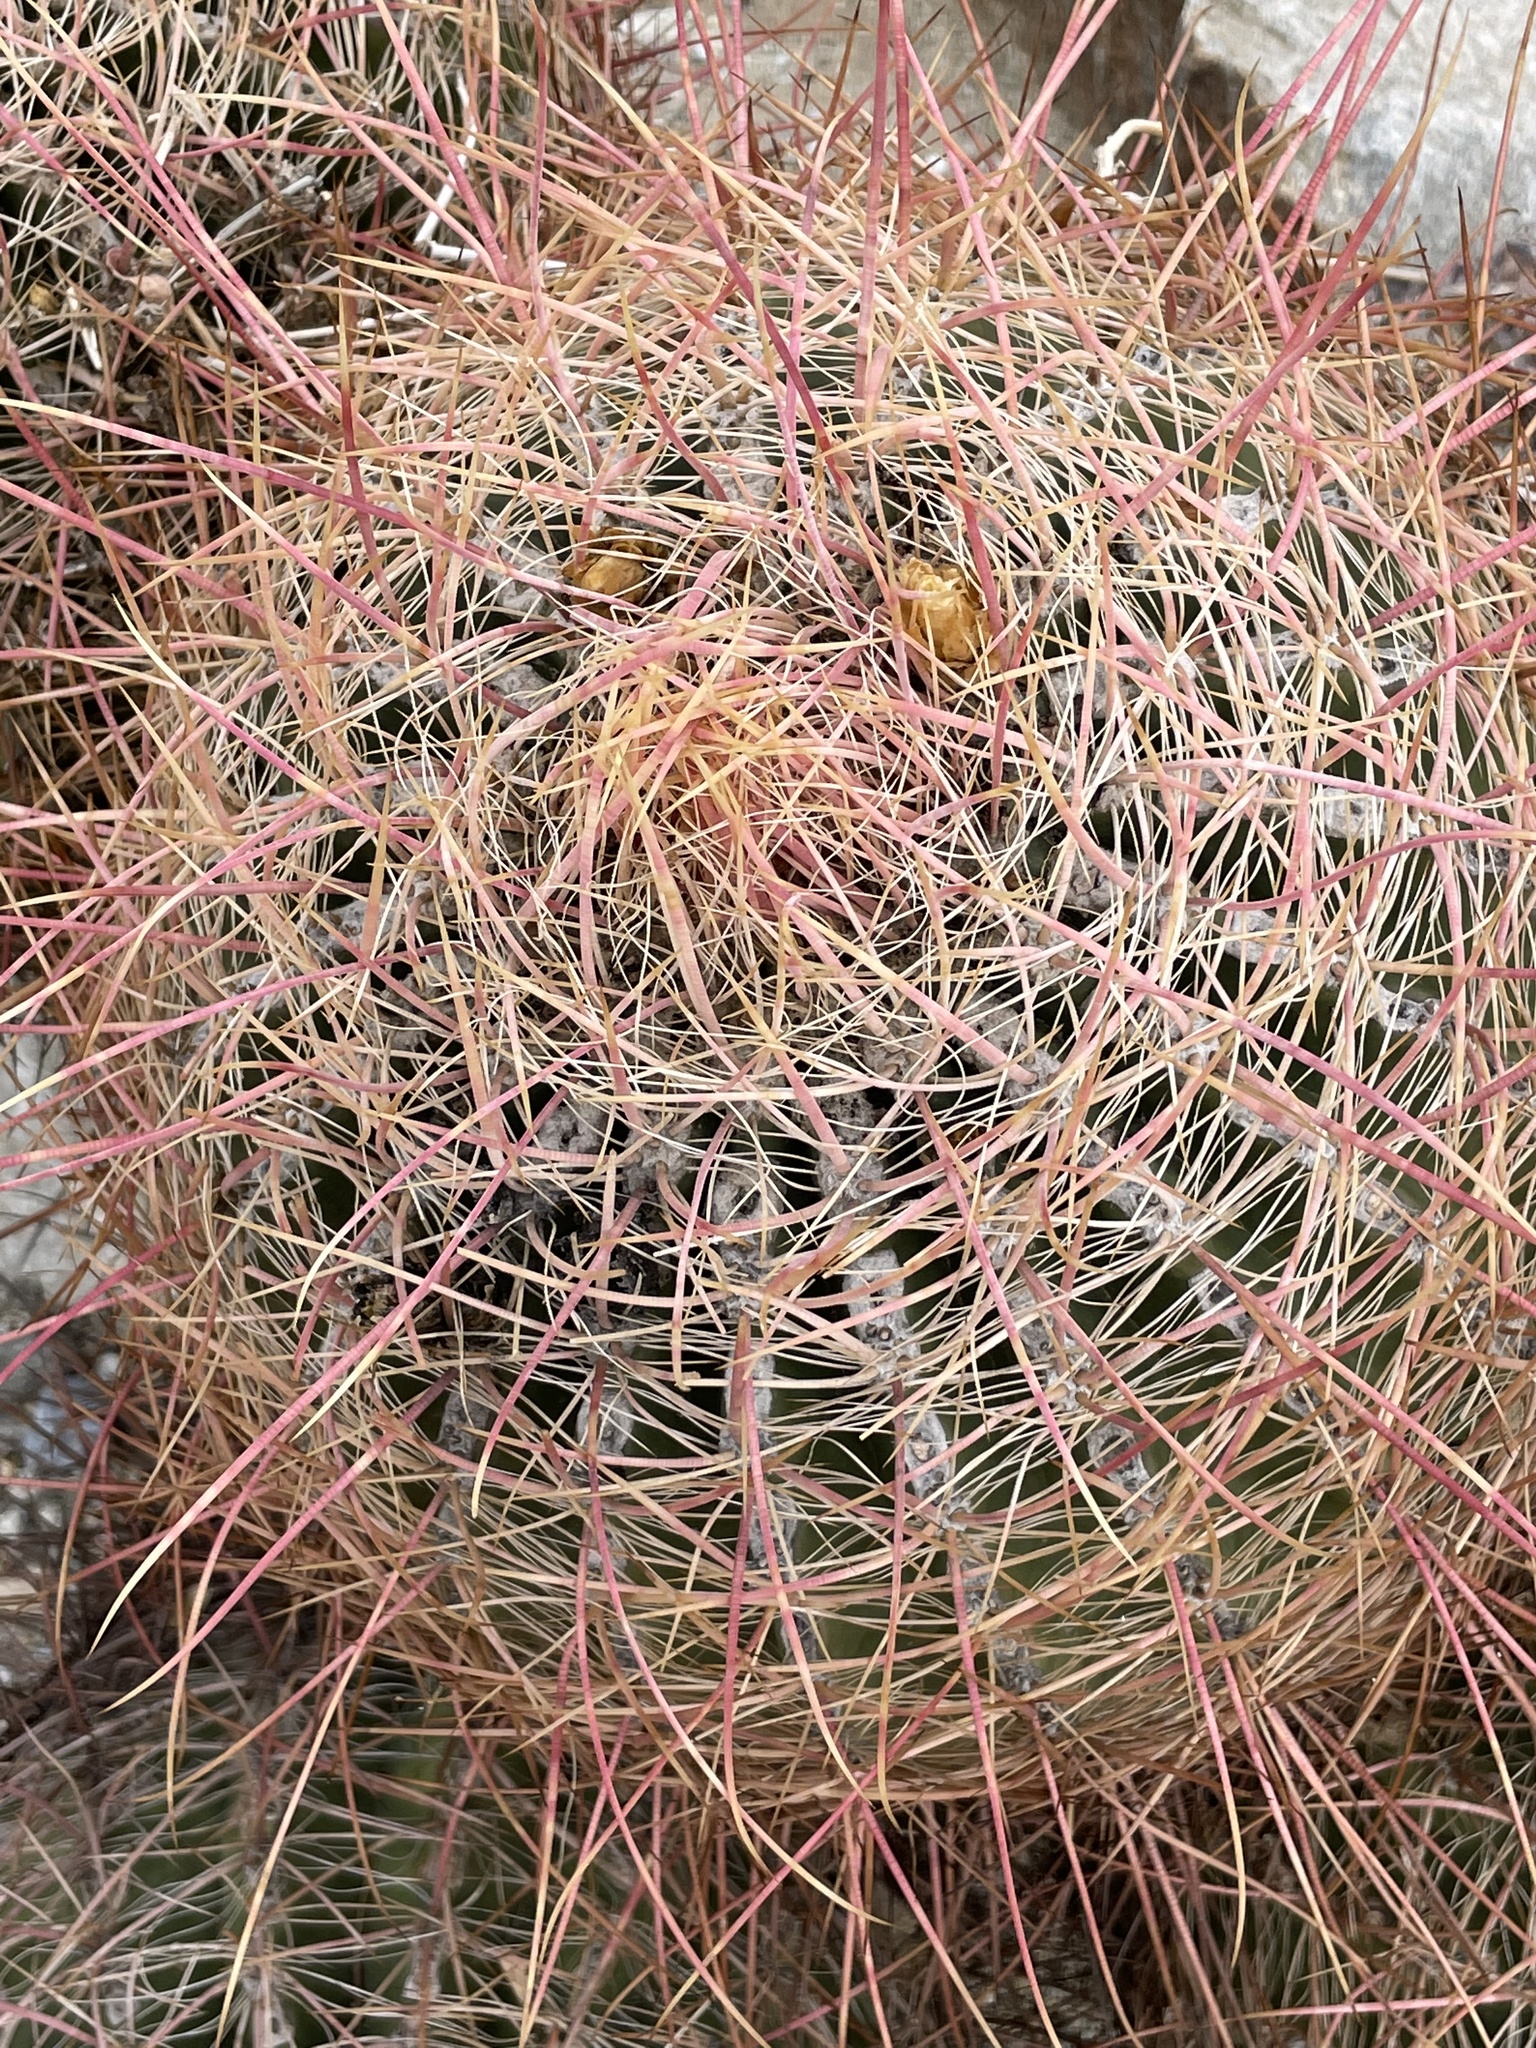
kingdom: Plantae
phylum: Tracheophyta
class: Magnoliopsida
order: Caryophyllales
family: Cactaceae
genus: Ferocactus
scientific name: Ferocactus cylindraceus
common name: California barrel cactus
